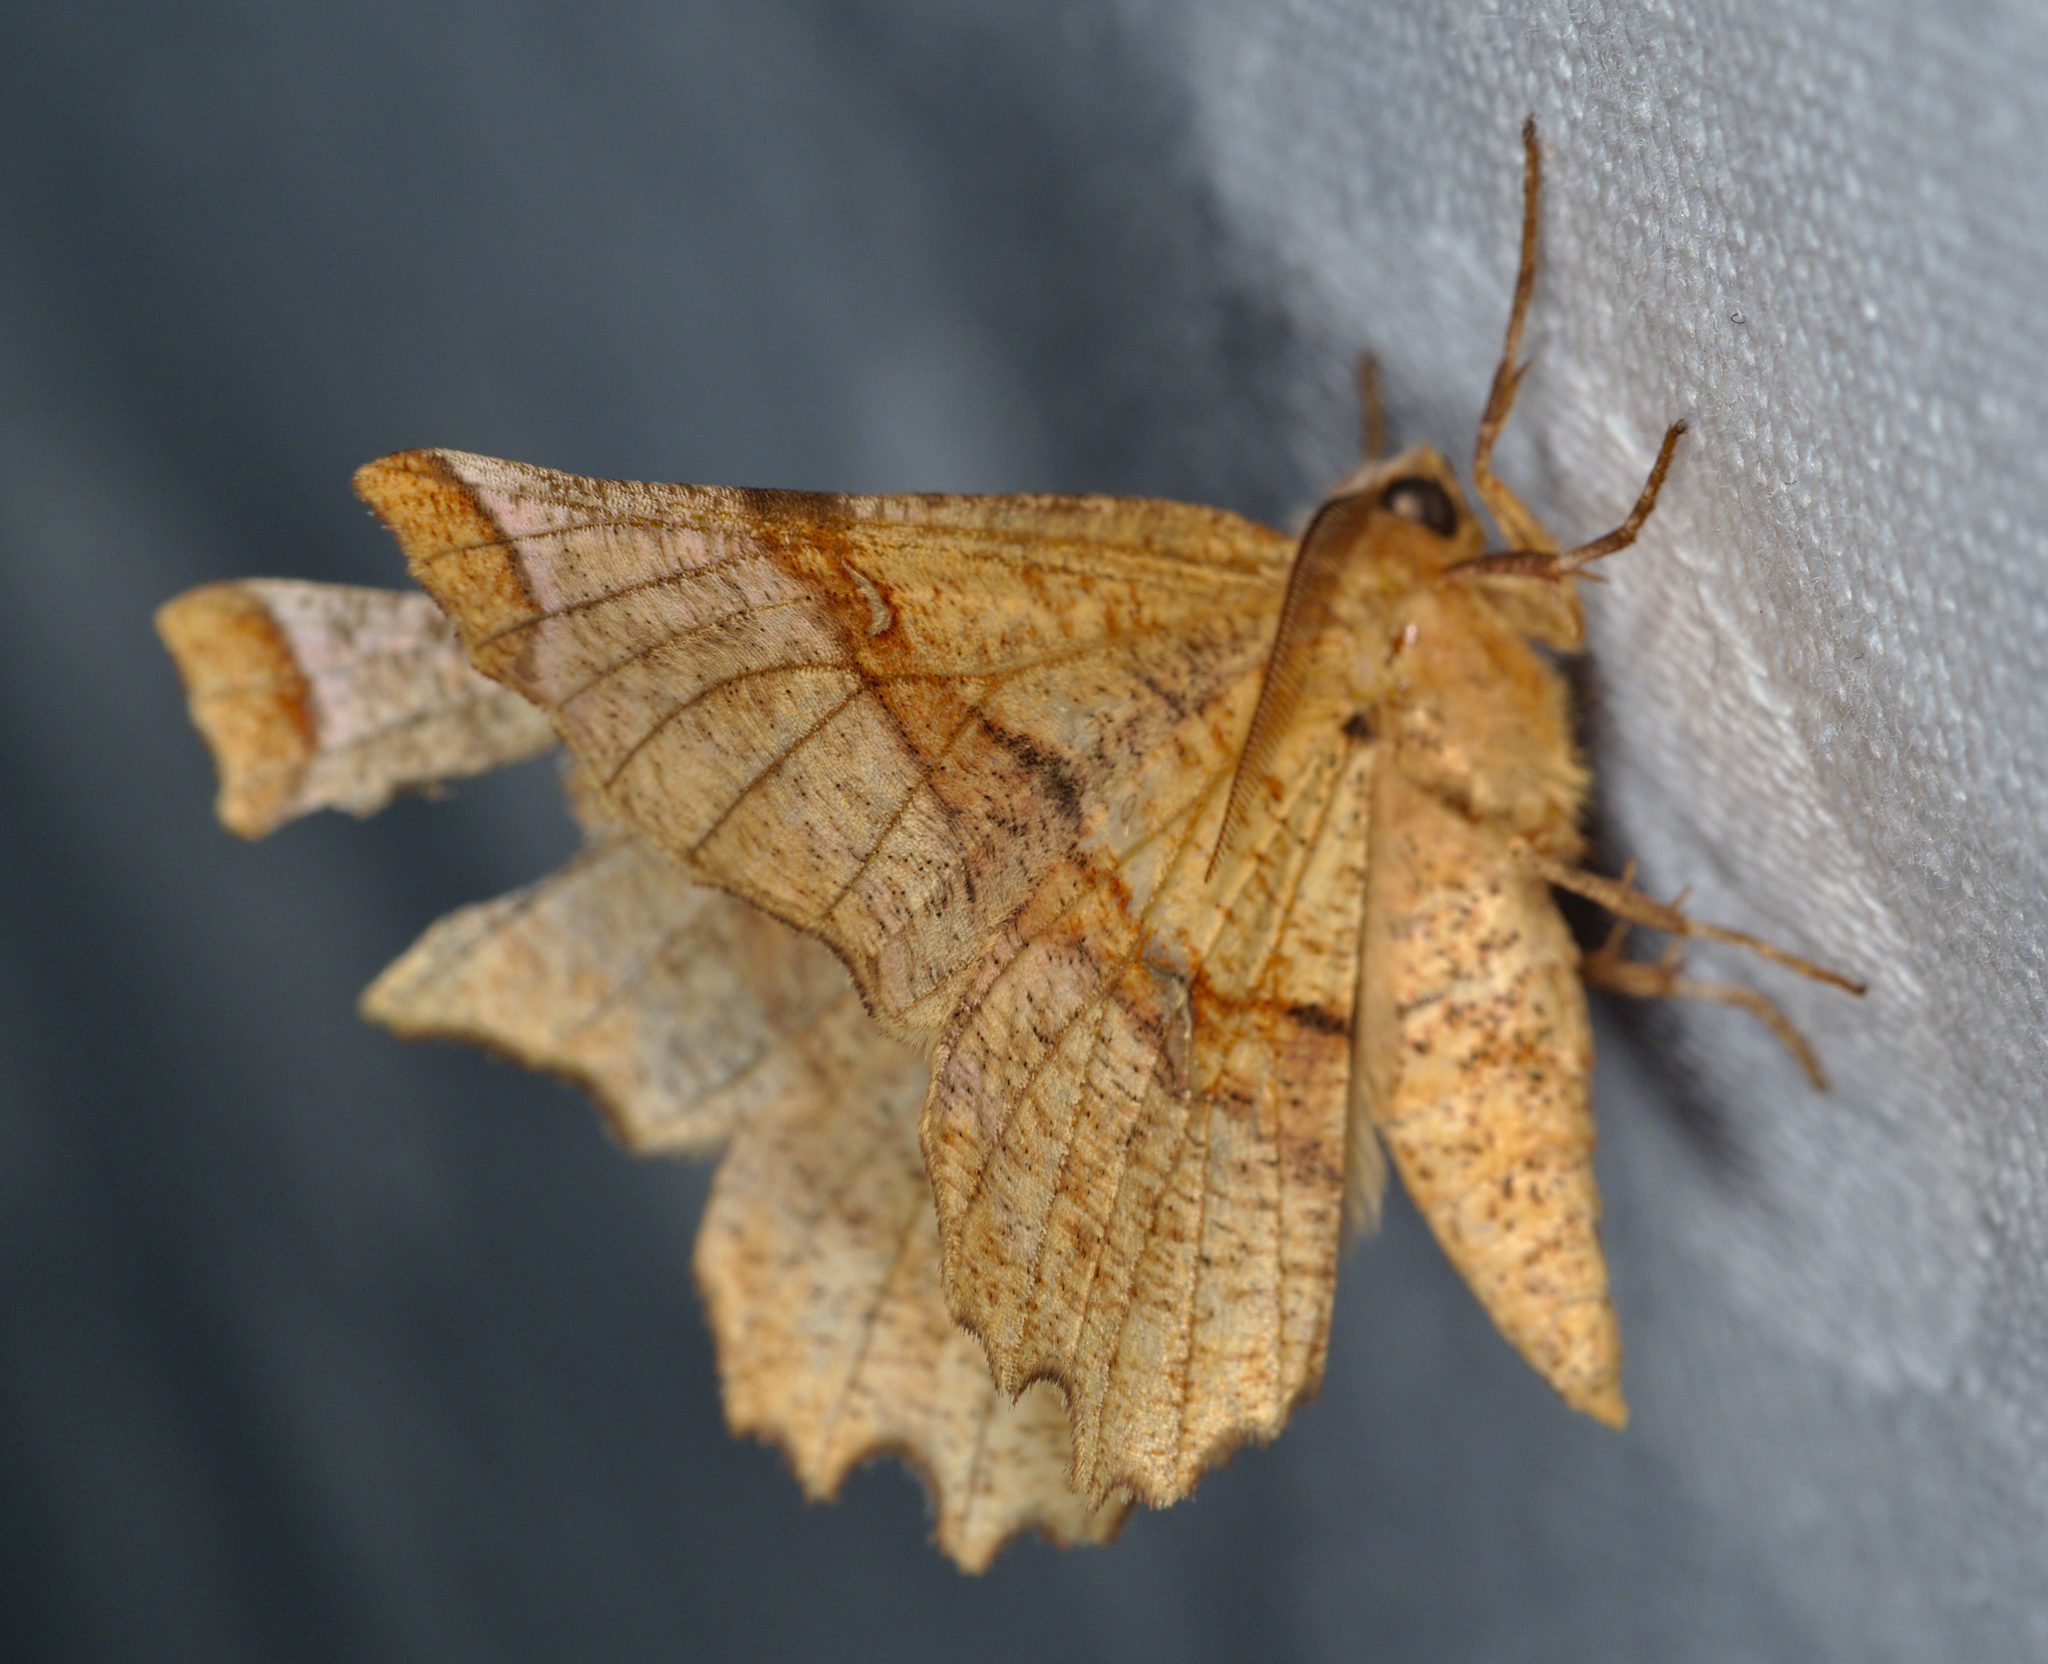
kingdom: Animalia
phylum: Arthropoda
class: Insecta
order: Lepidoptera
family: Geometridae
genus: Selenia
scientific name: Selenia lunularia
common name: Lunar thorn
